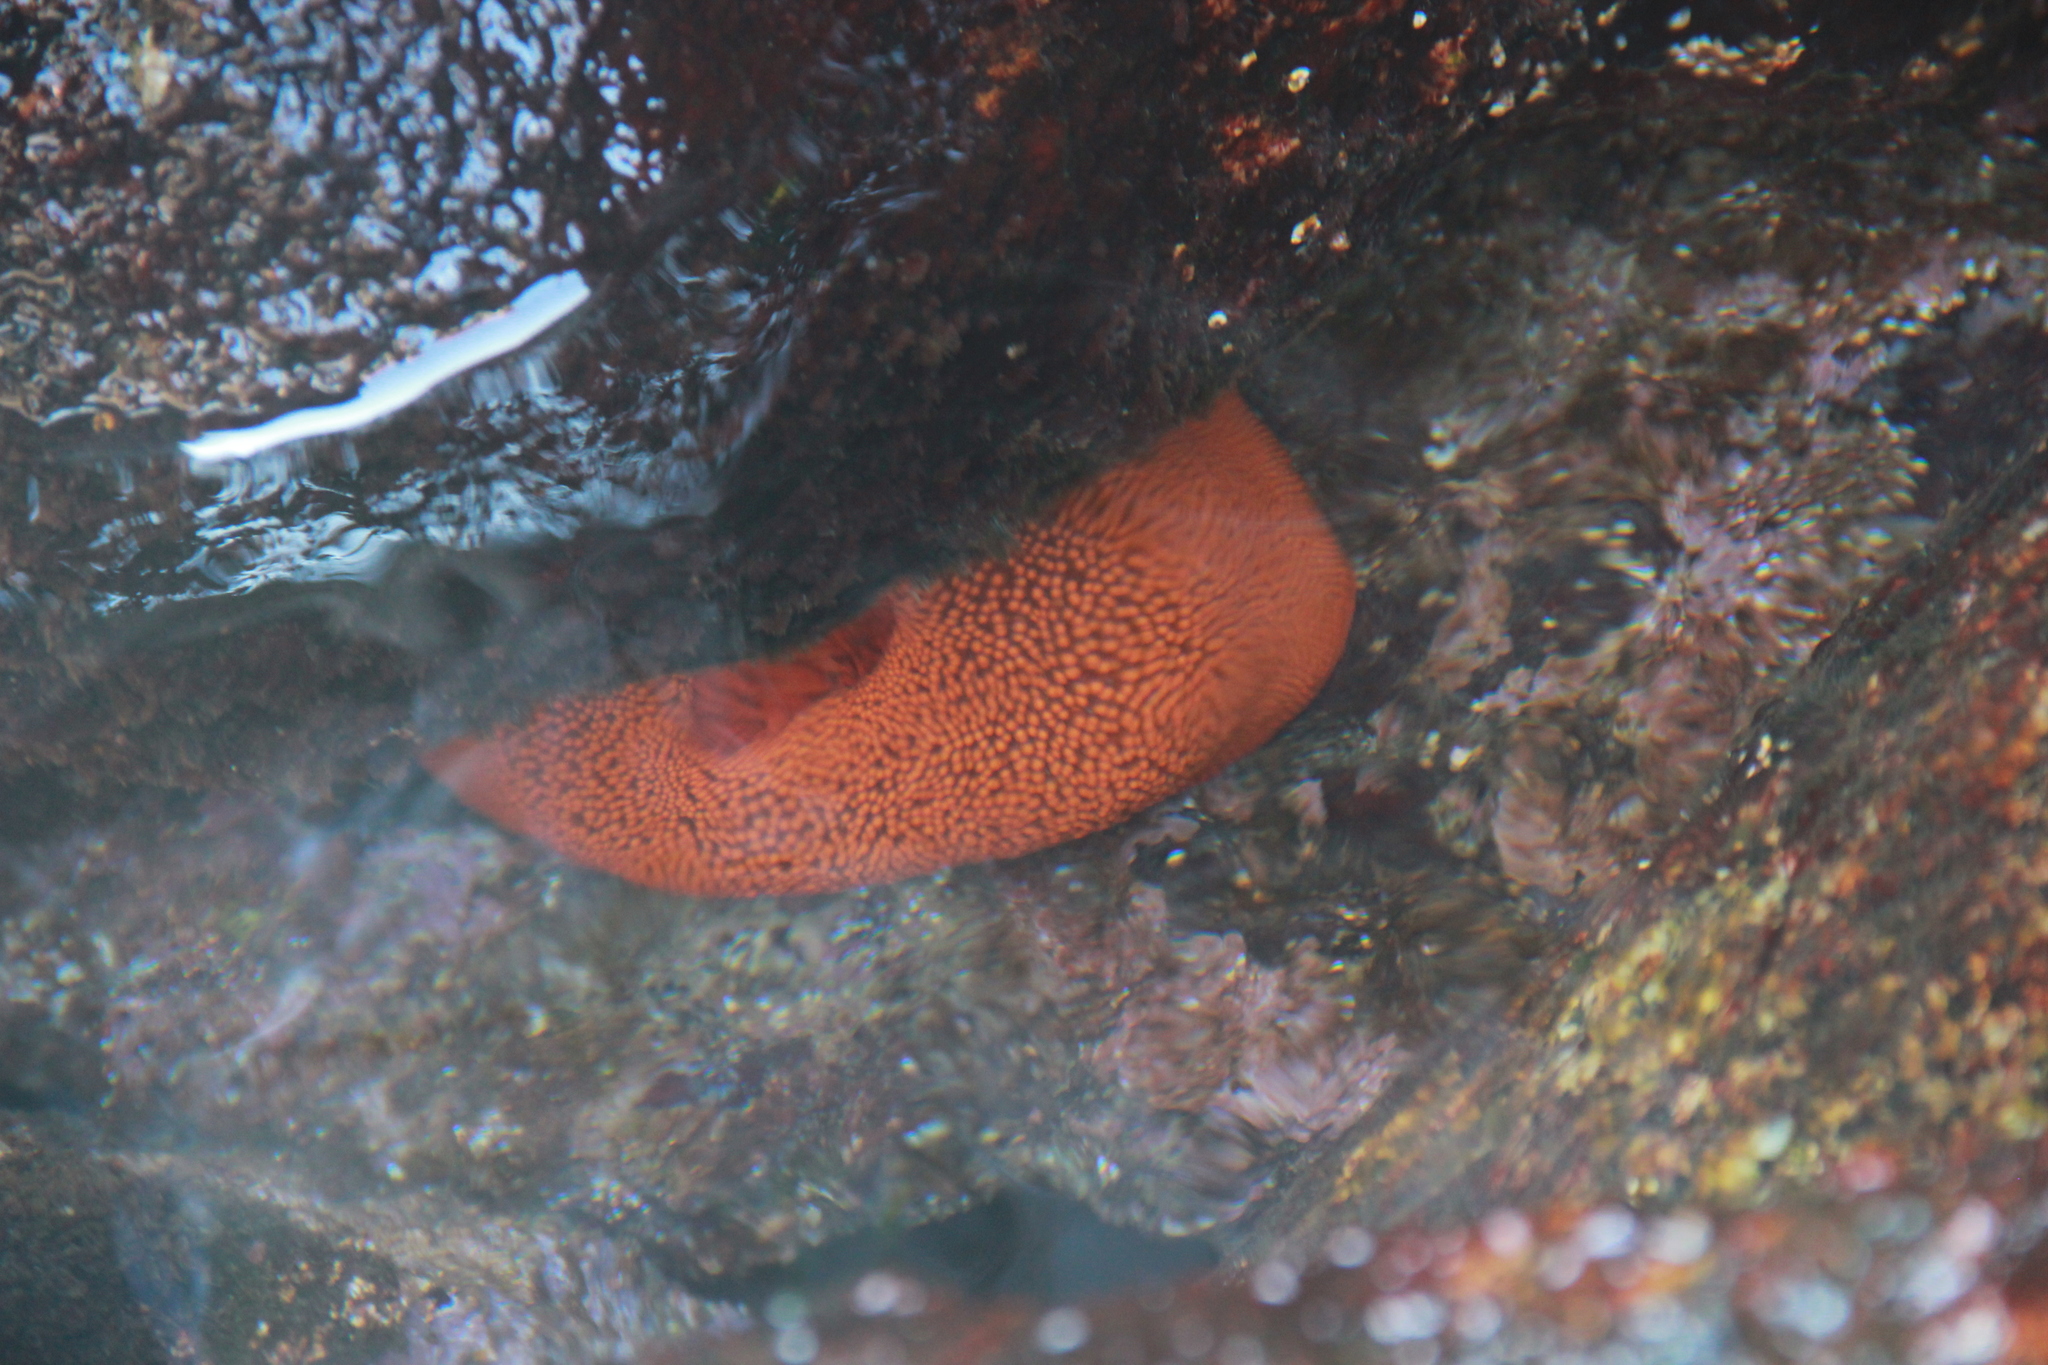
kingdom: Animalia
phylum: Cnidaria
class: Anthozoa
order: Actiniaria
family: Actiniidae
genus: Phymanthea
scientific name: Phymanthea pluvia
